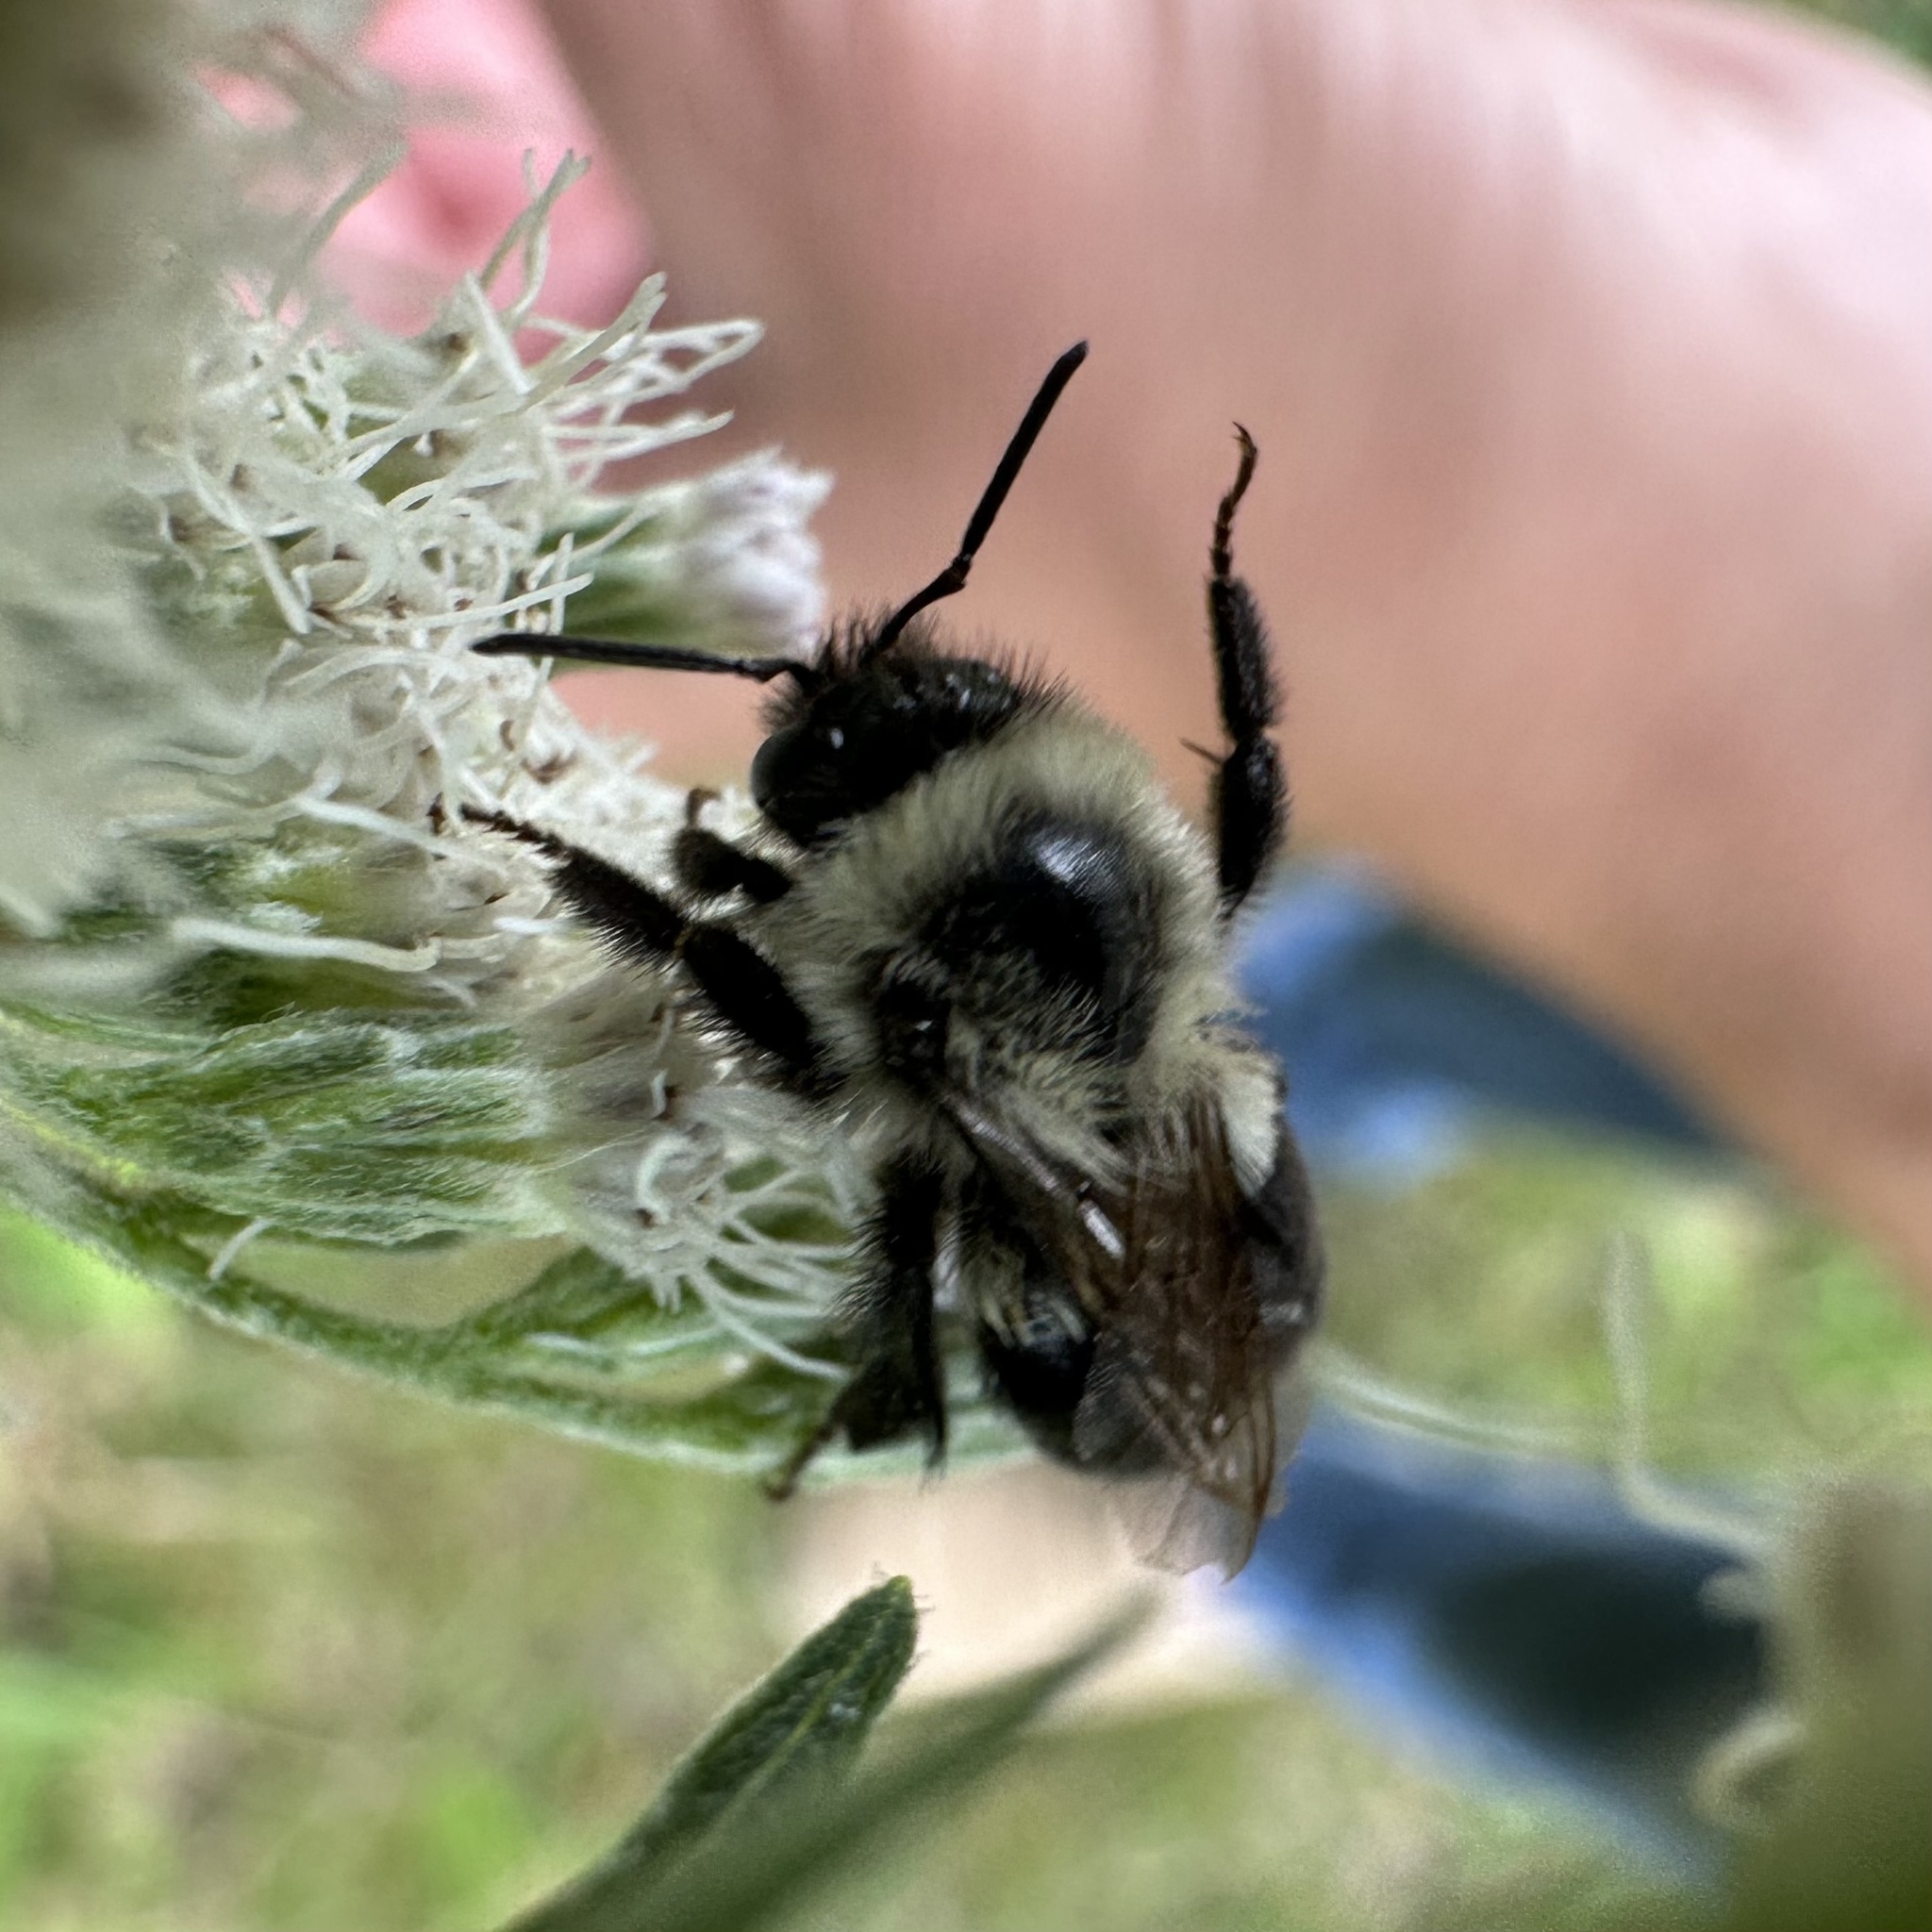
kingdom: Animalia
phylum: Arthropoda
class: Insecta
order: Hymenoptera
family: Apidae
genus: Bombus
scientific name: Bombus impatiens
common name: Common eastern bumble bee
